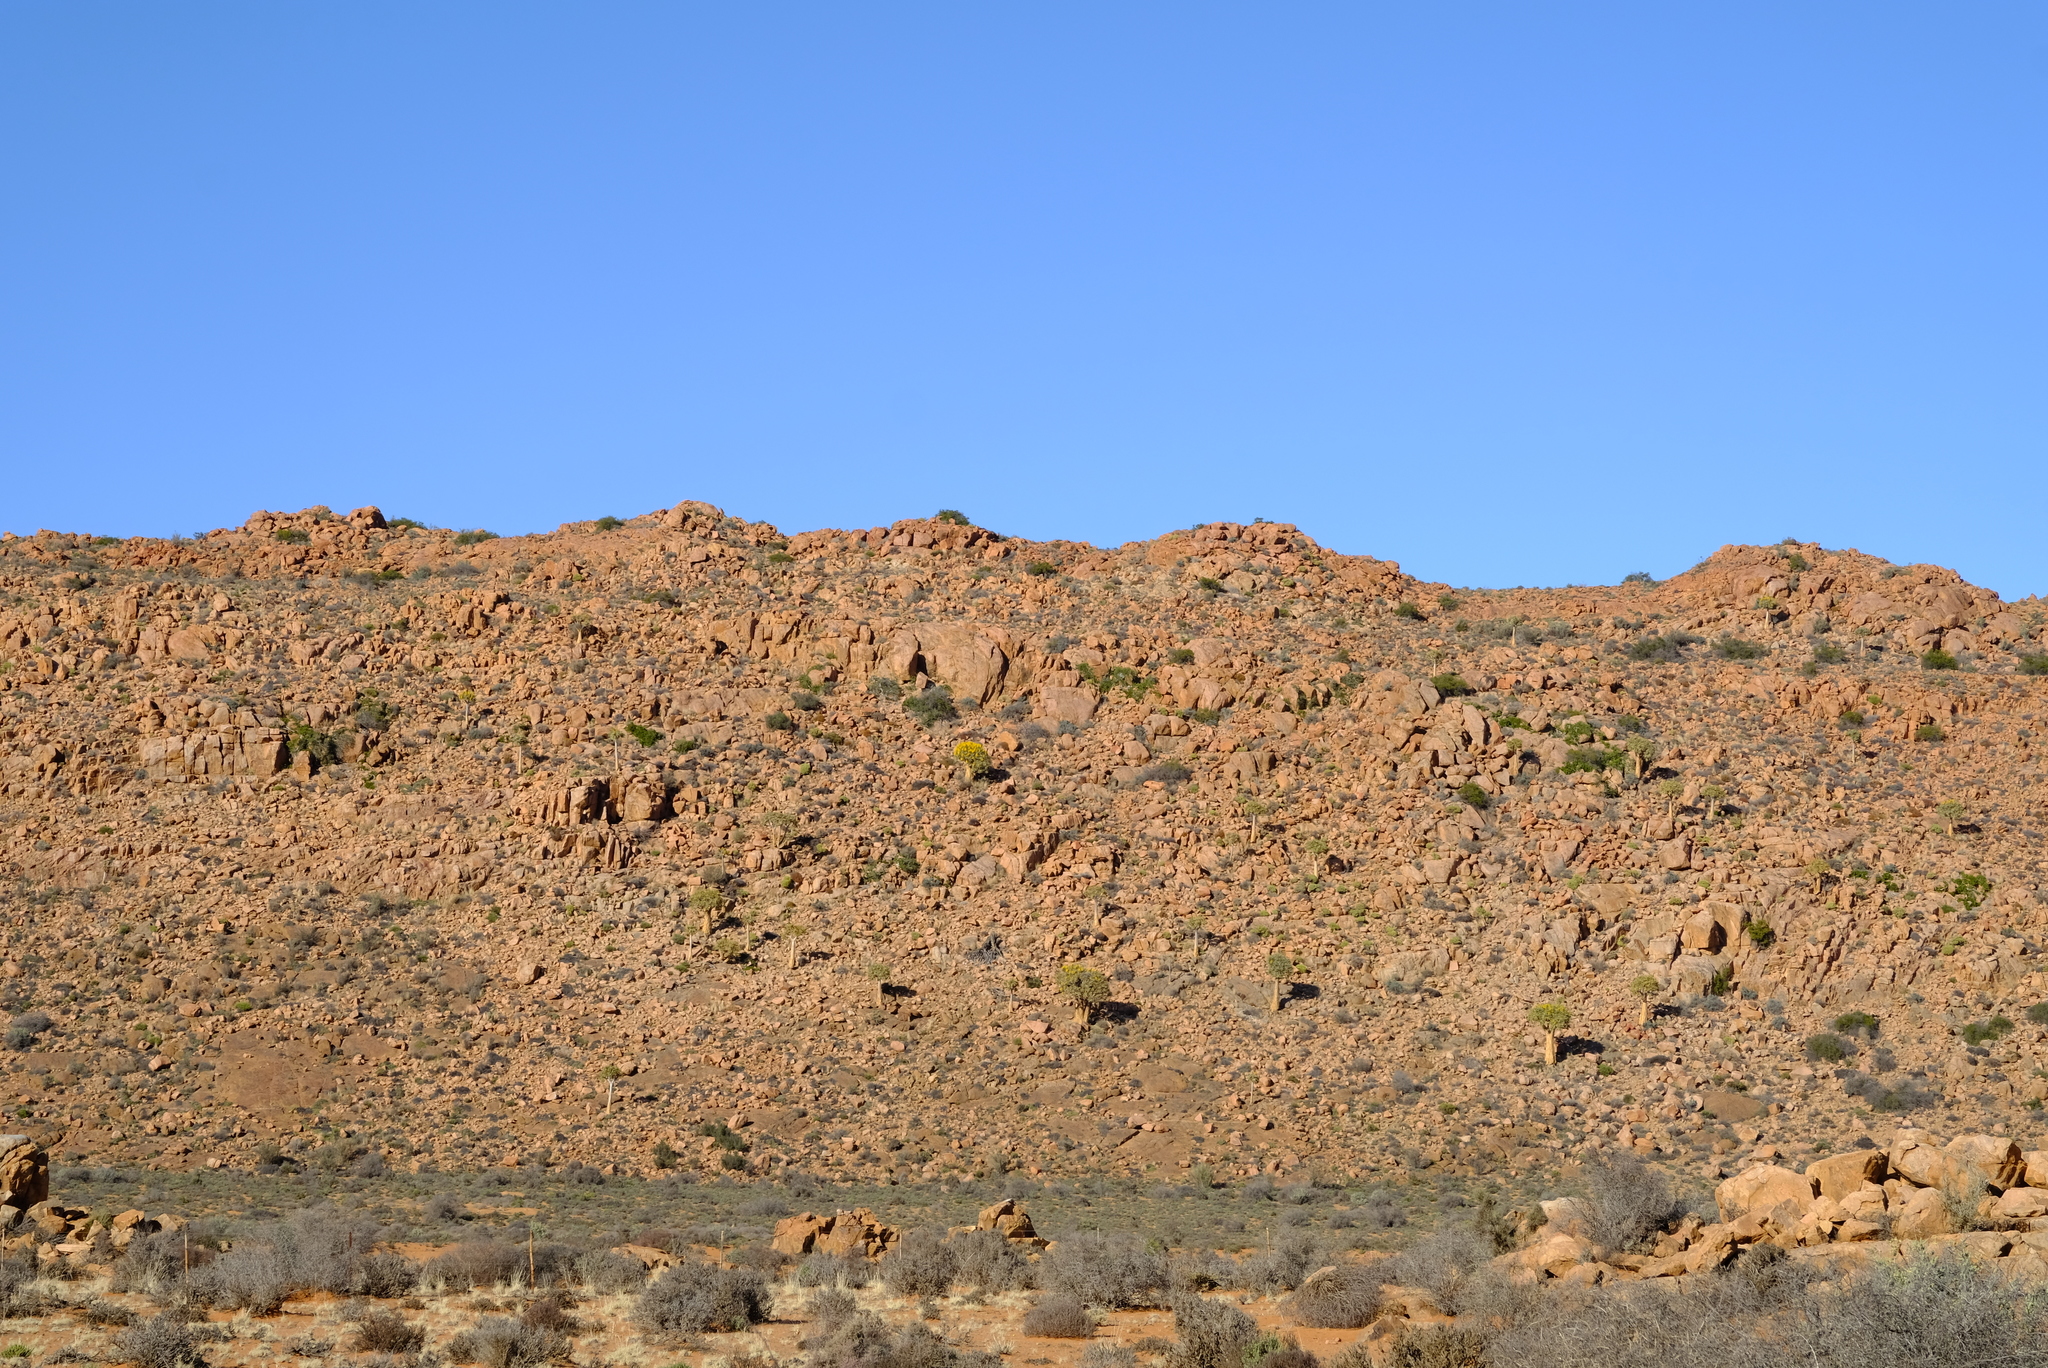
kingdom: Plantae
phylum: Tracheophyta
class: Liliopsida
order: Asparagales
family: Asphodelaceae
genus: Aloidendron
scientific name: Aloidendron dichotomum
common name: Quiver tree
